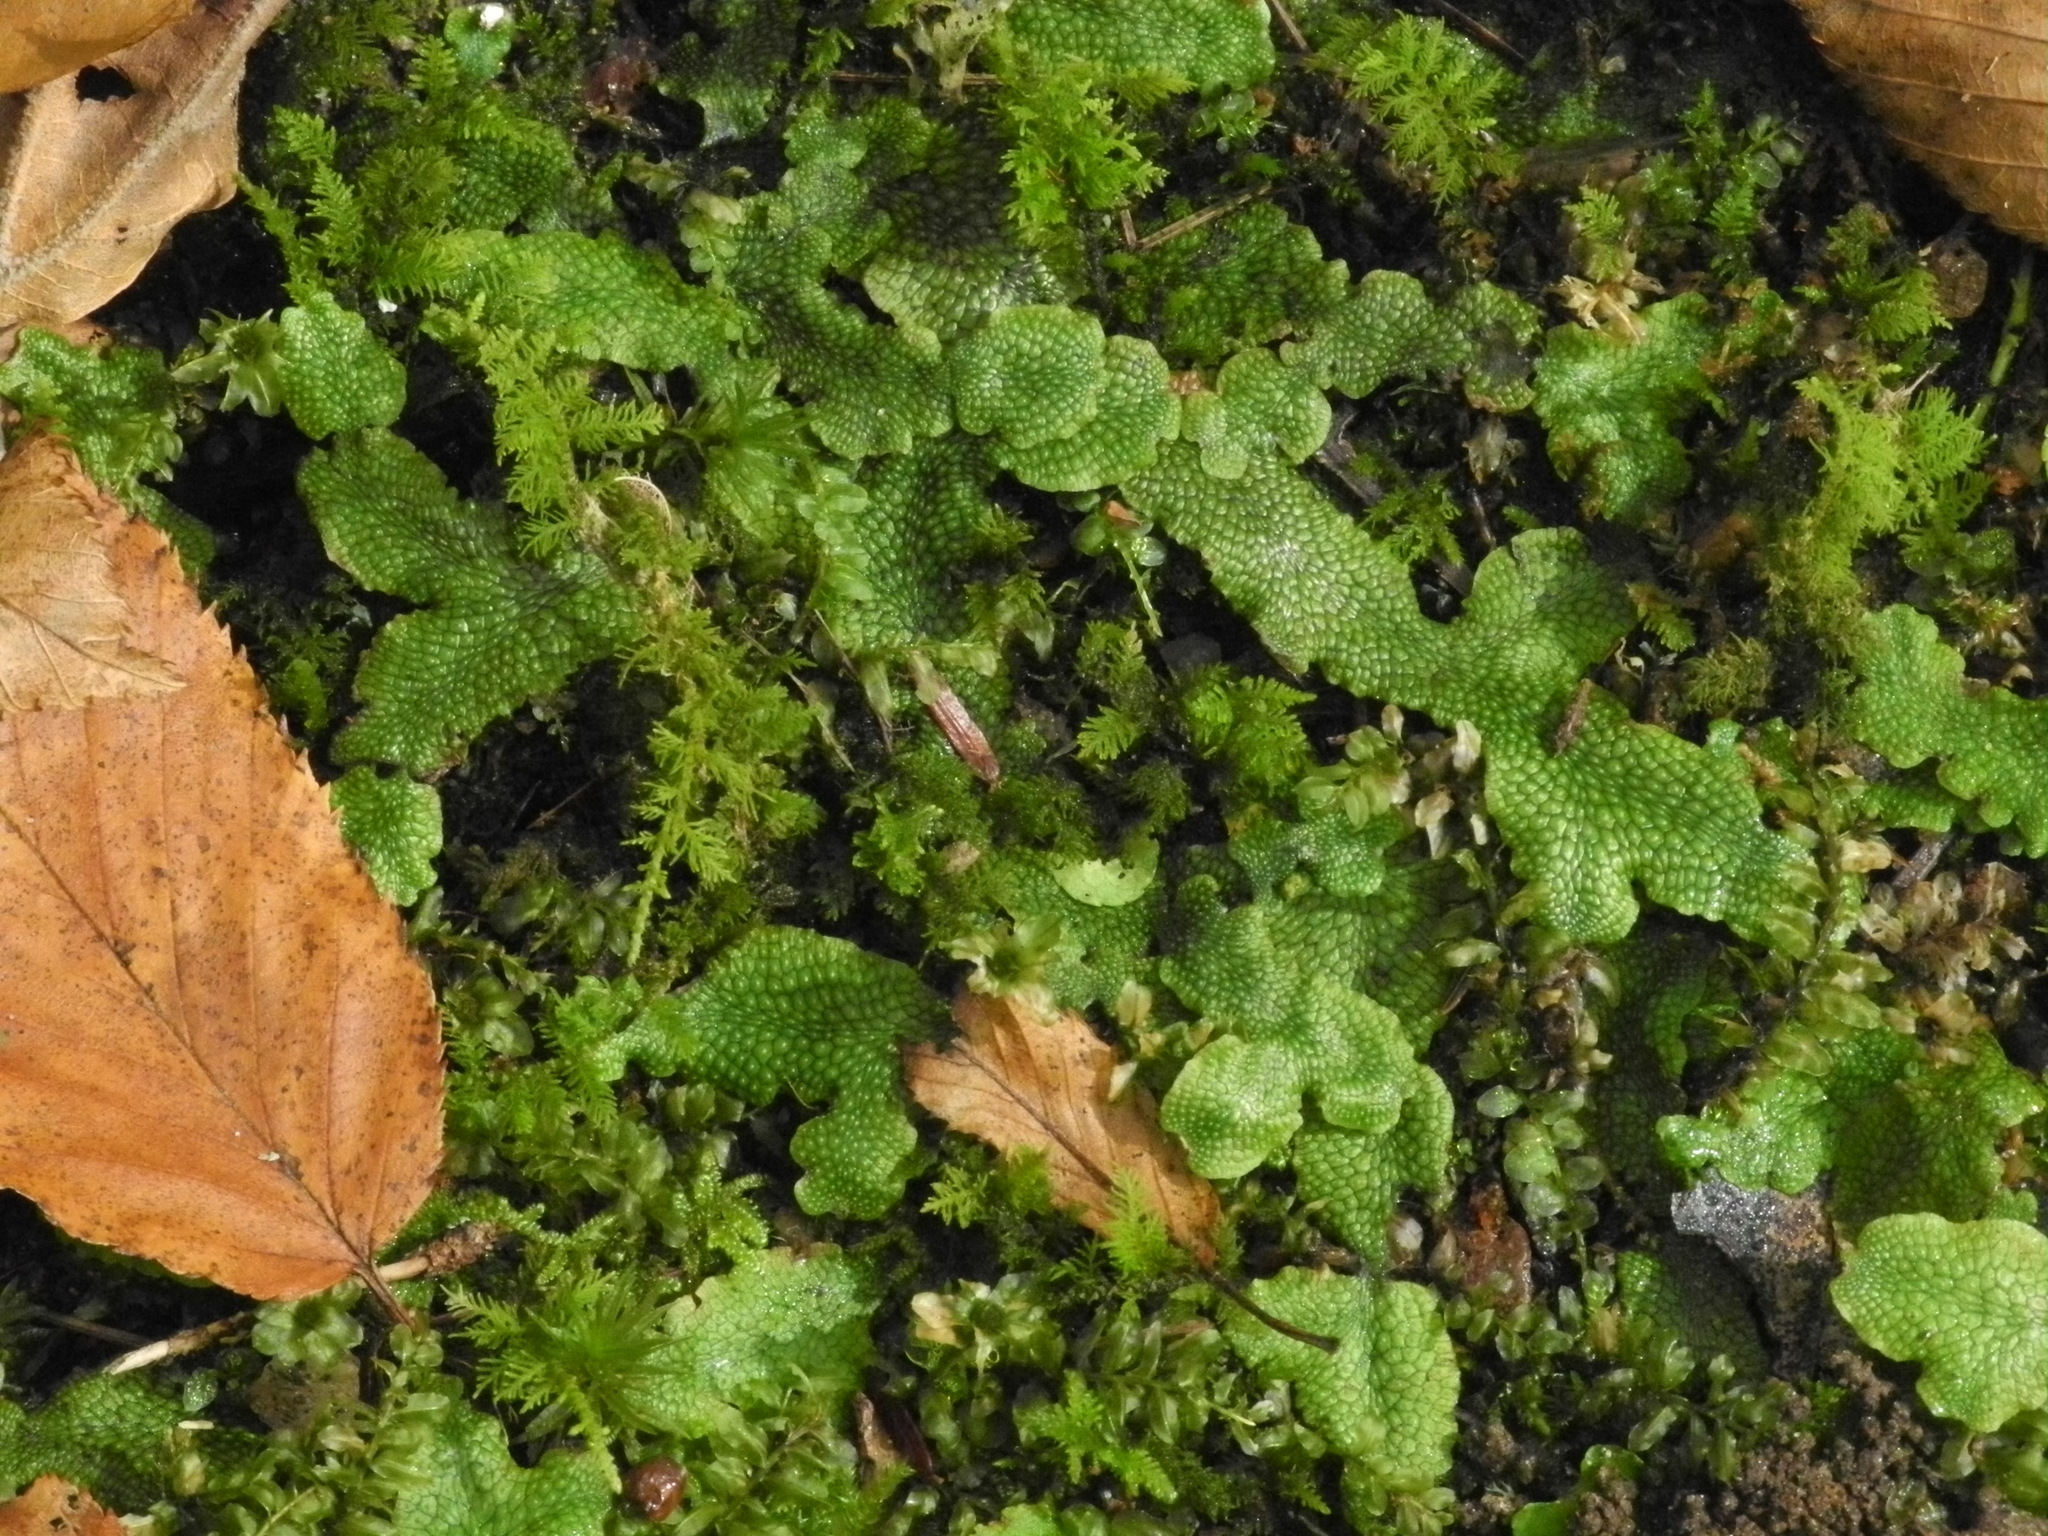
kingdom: Plantae
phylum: Marchantiophyta
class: Marchantiopsida
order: Marchantiales
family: Conocephalaceae
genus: Conocephalum
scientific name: Conocephalum salebrosum
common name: Cat-tongue liverwort
